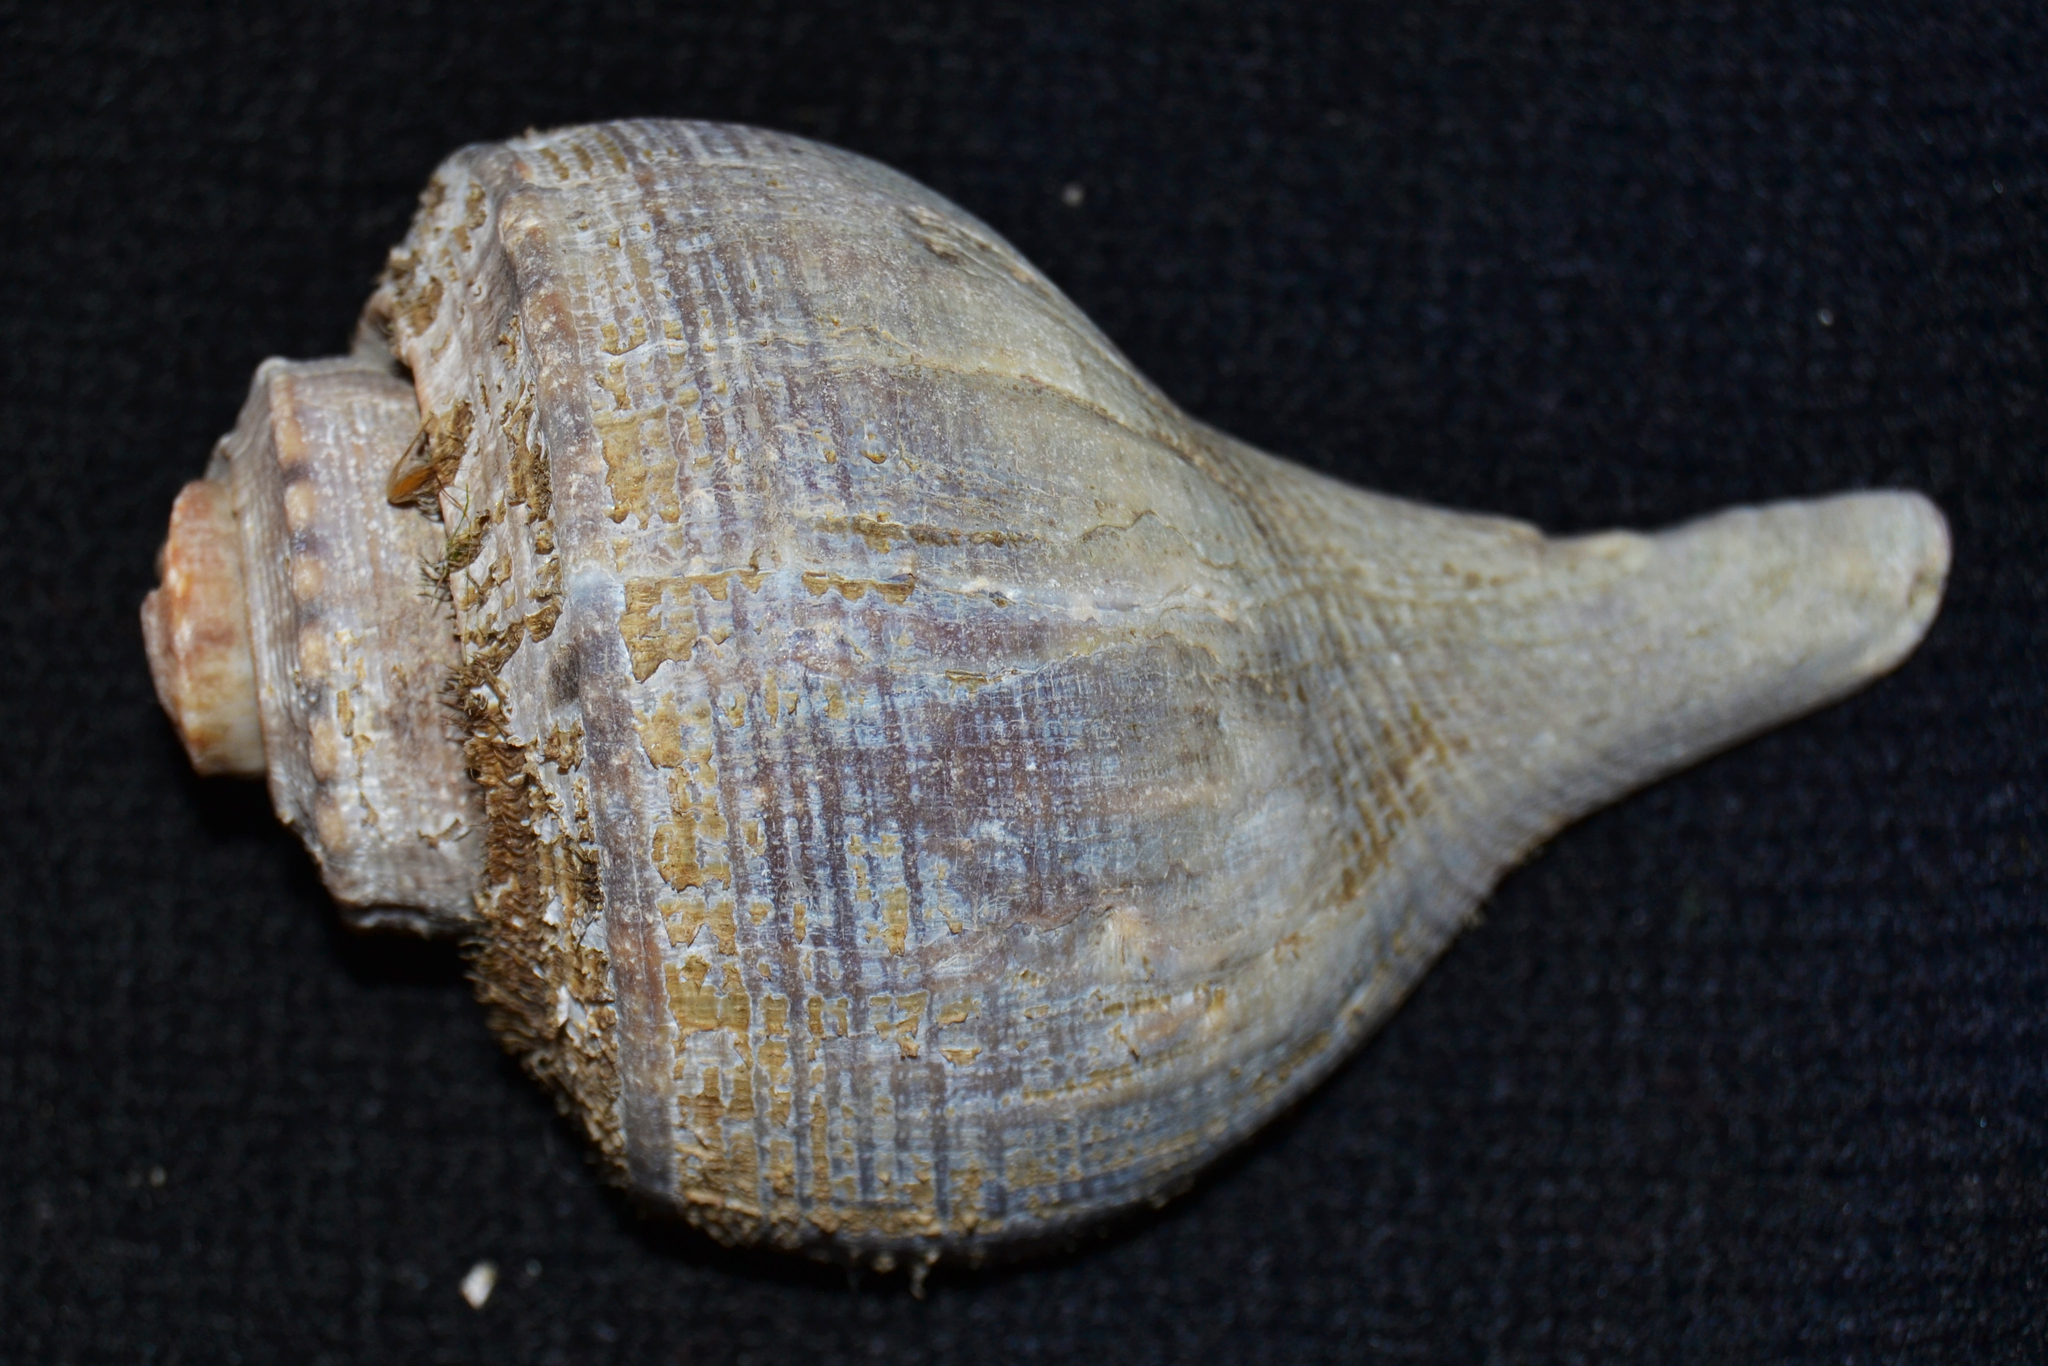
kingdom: Animalia
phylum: Mollusca
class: Gastropoda
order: Neogastropoda
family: Busyconidae
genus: Busycotypus
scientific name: Busycotypus canaliculatus
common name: Channeled whelk
